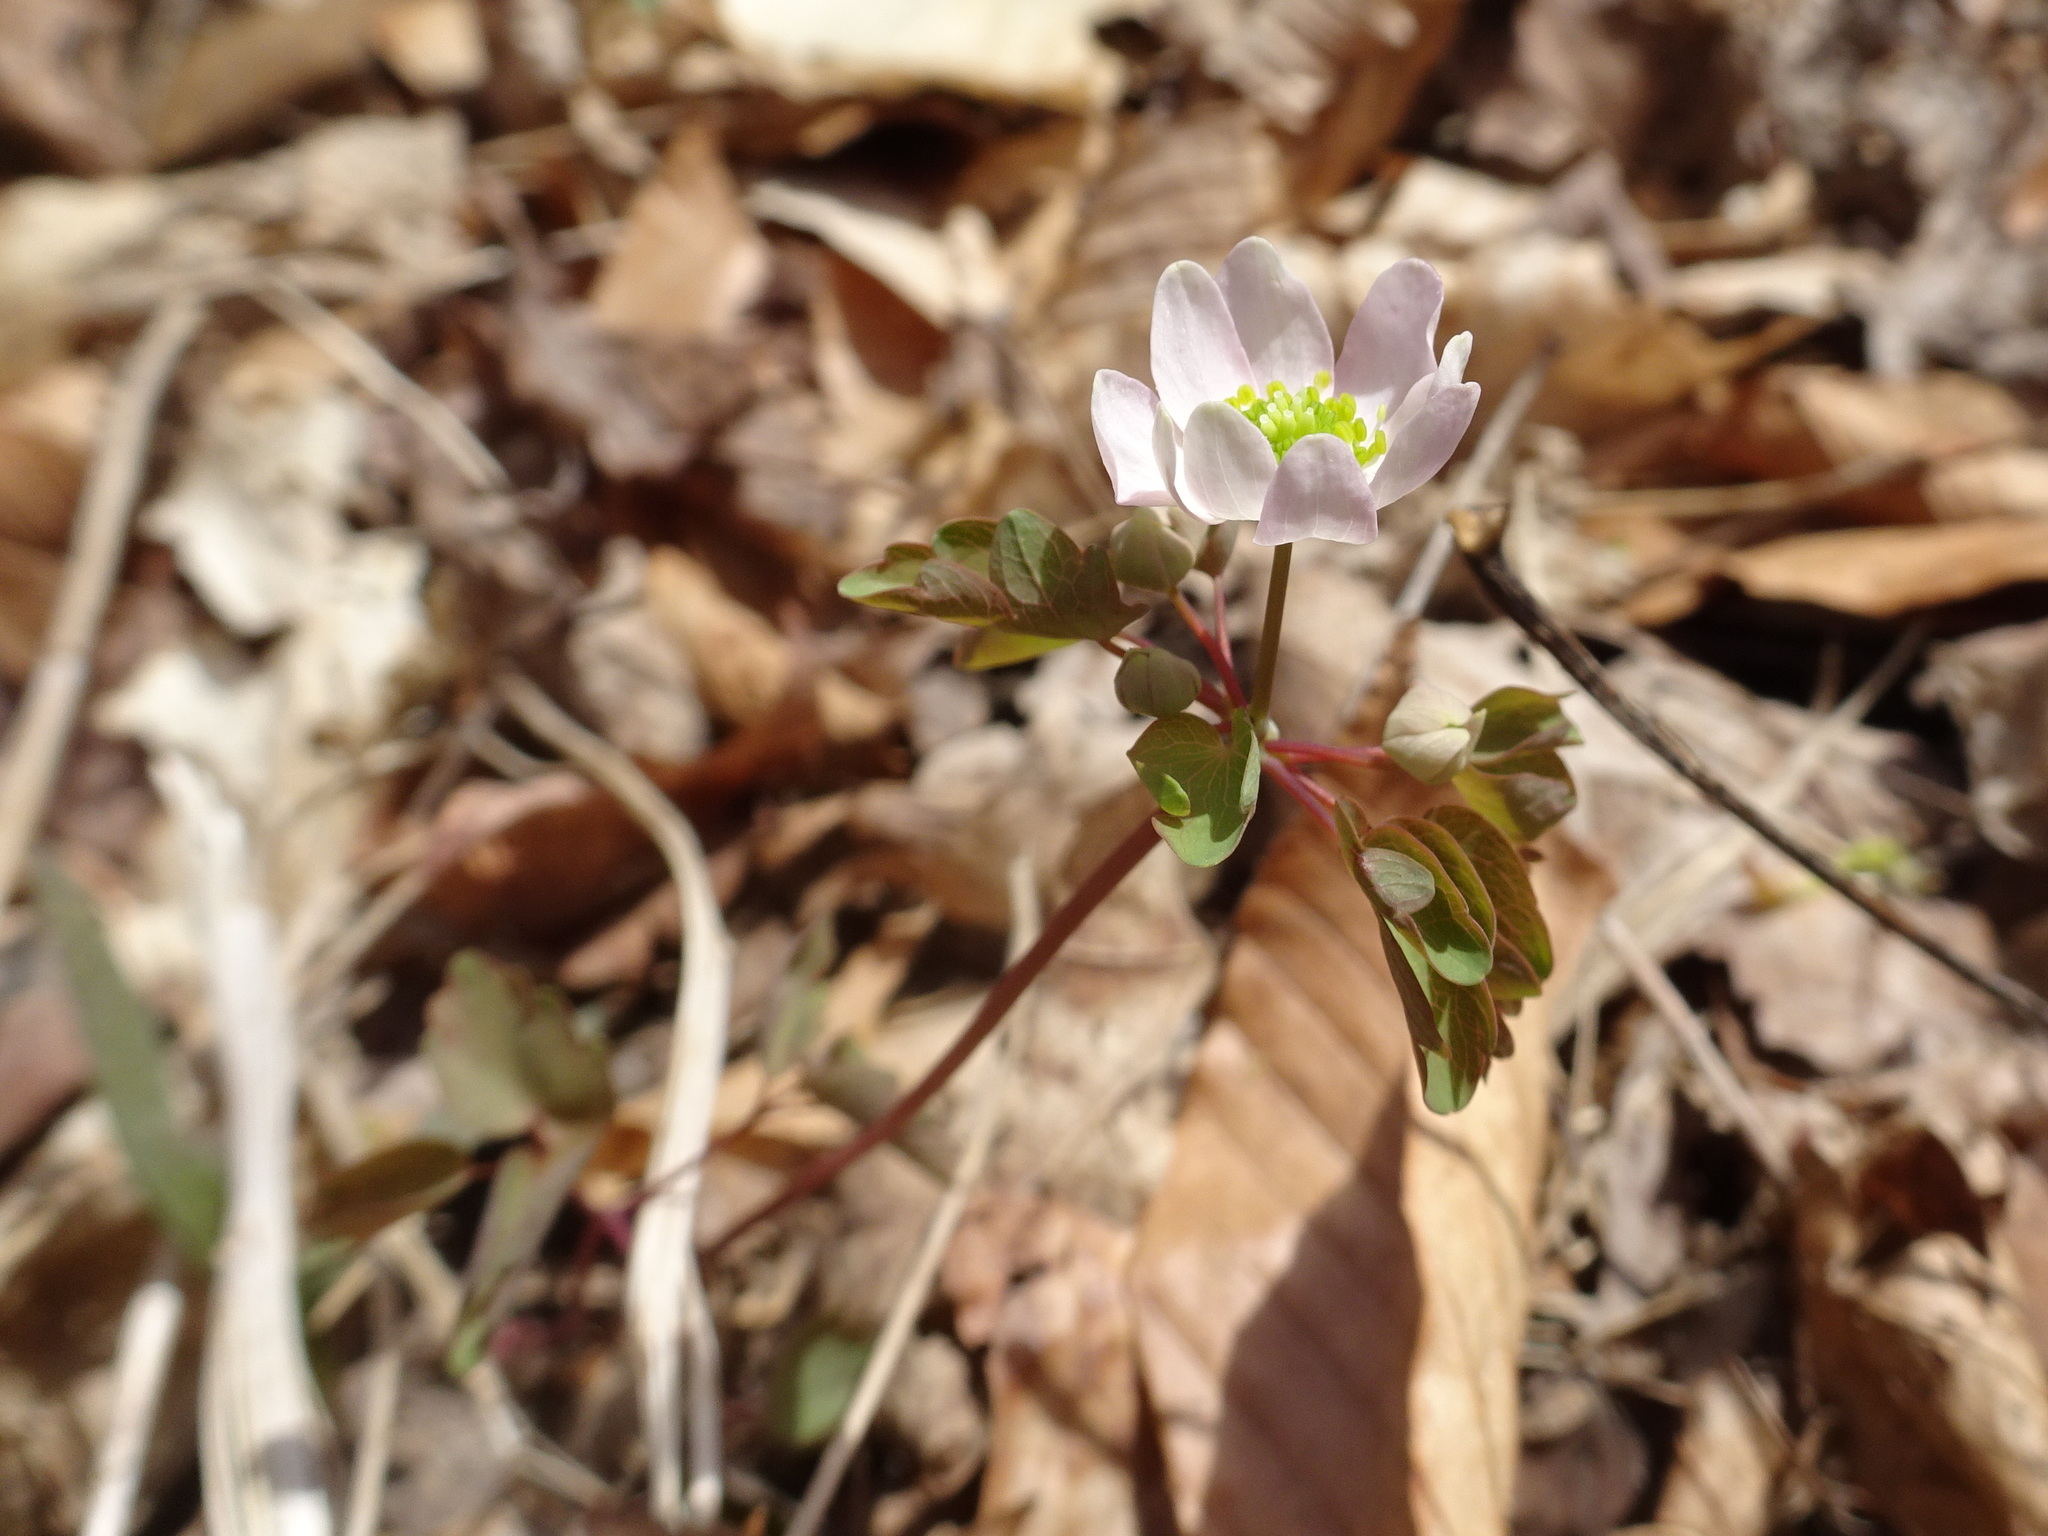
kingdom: Plantae
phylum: Tracheophyta
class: Magnoliopsida
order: Ranunculales
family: Ranunculaceae
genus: Thalictrum
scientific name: Thalictrum thalictroides
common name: Rue-anemone
